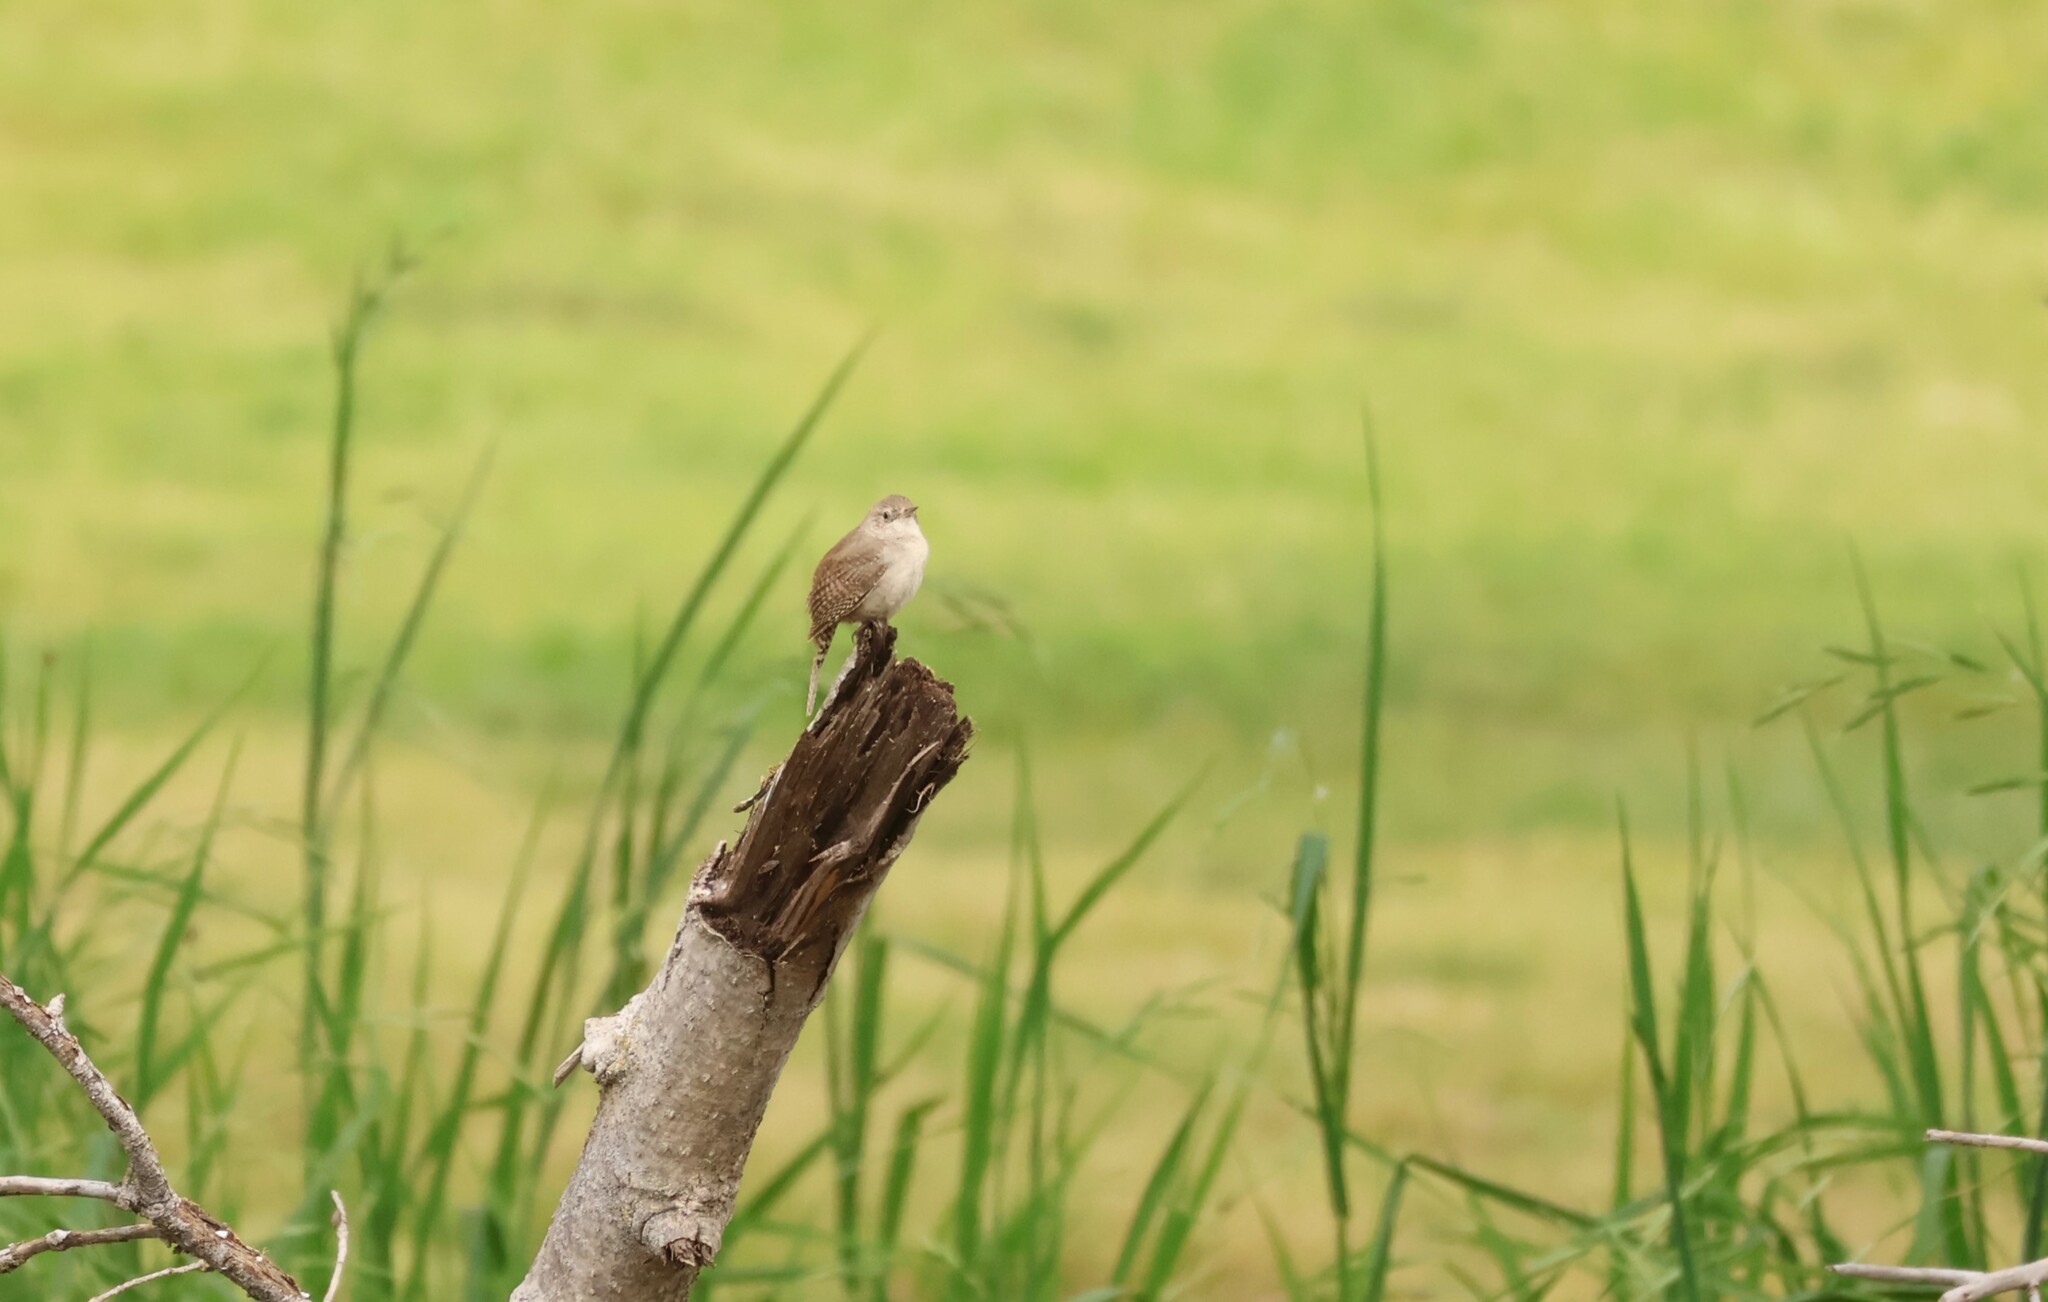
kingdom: Animalia
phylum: Chordata
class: Aves
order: Passeriformes
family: Troglodytidae
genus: Troglodytes
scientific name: Troglodytes aedon
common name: House wren
